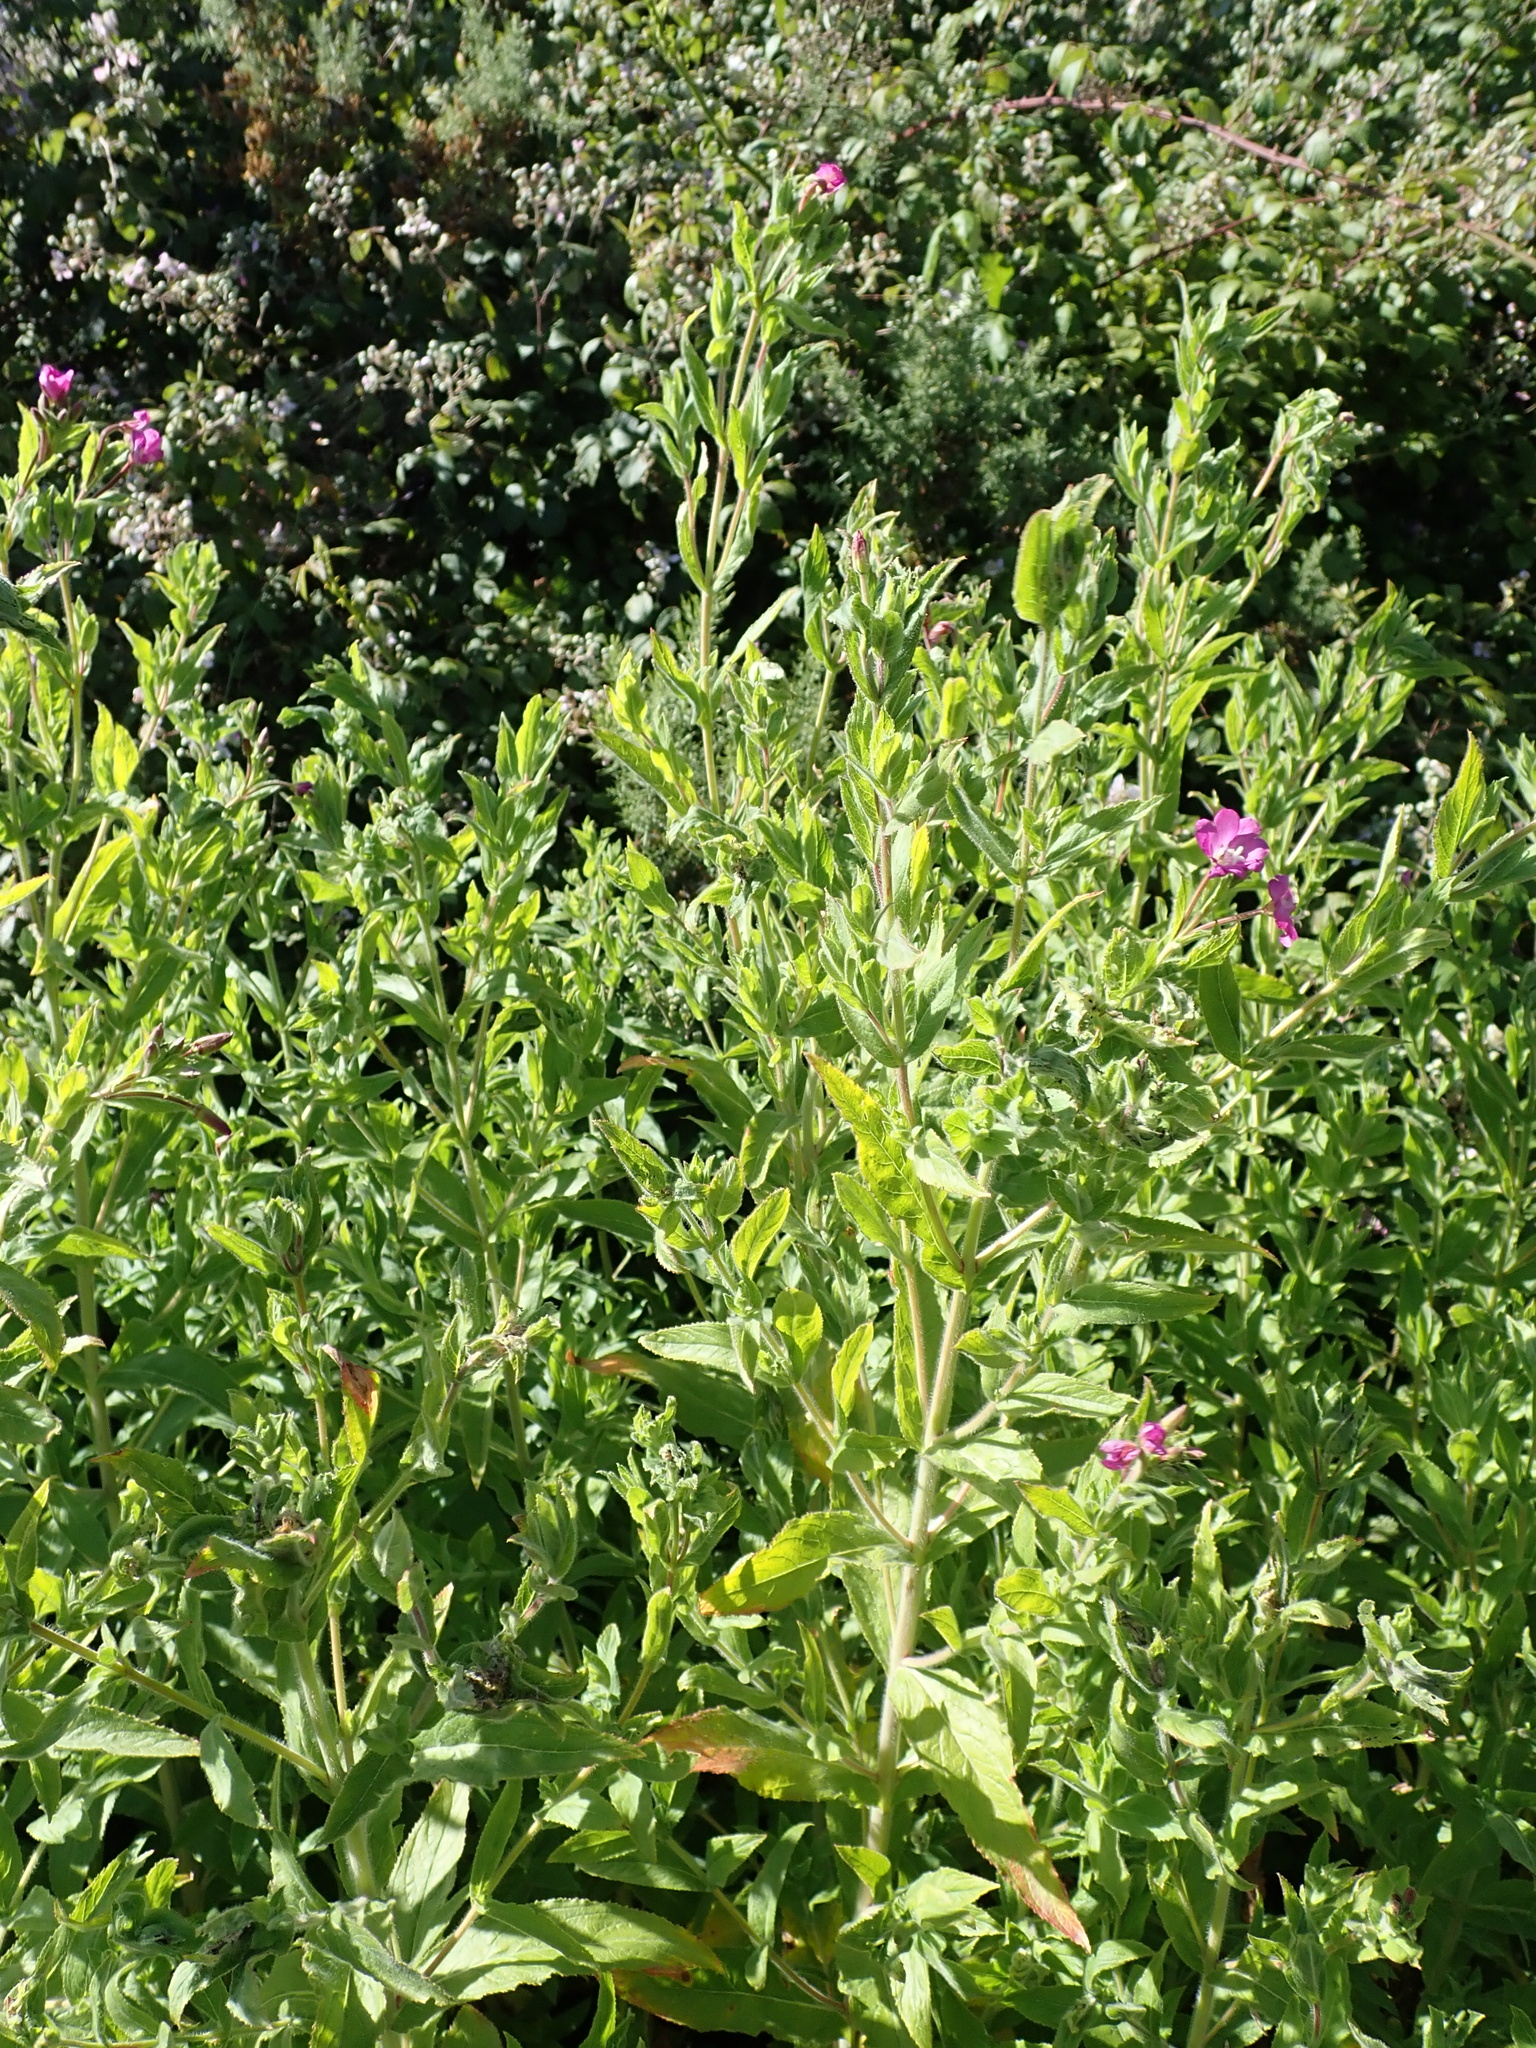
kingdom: Plantae
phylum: Tracheophyta
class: Magnoliopsida
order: Myrtales
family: Onagraceae
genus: Epilobium
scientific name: Epilobium hirsutum
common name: Great willowherb
